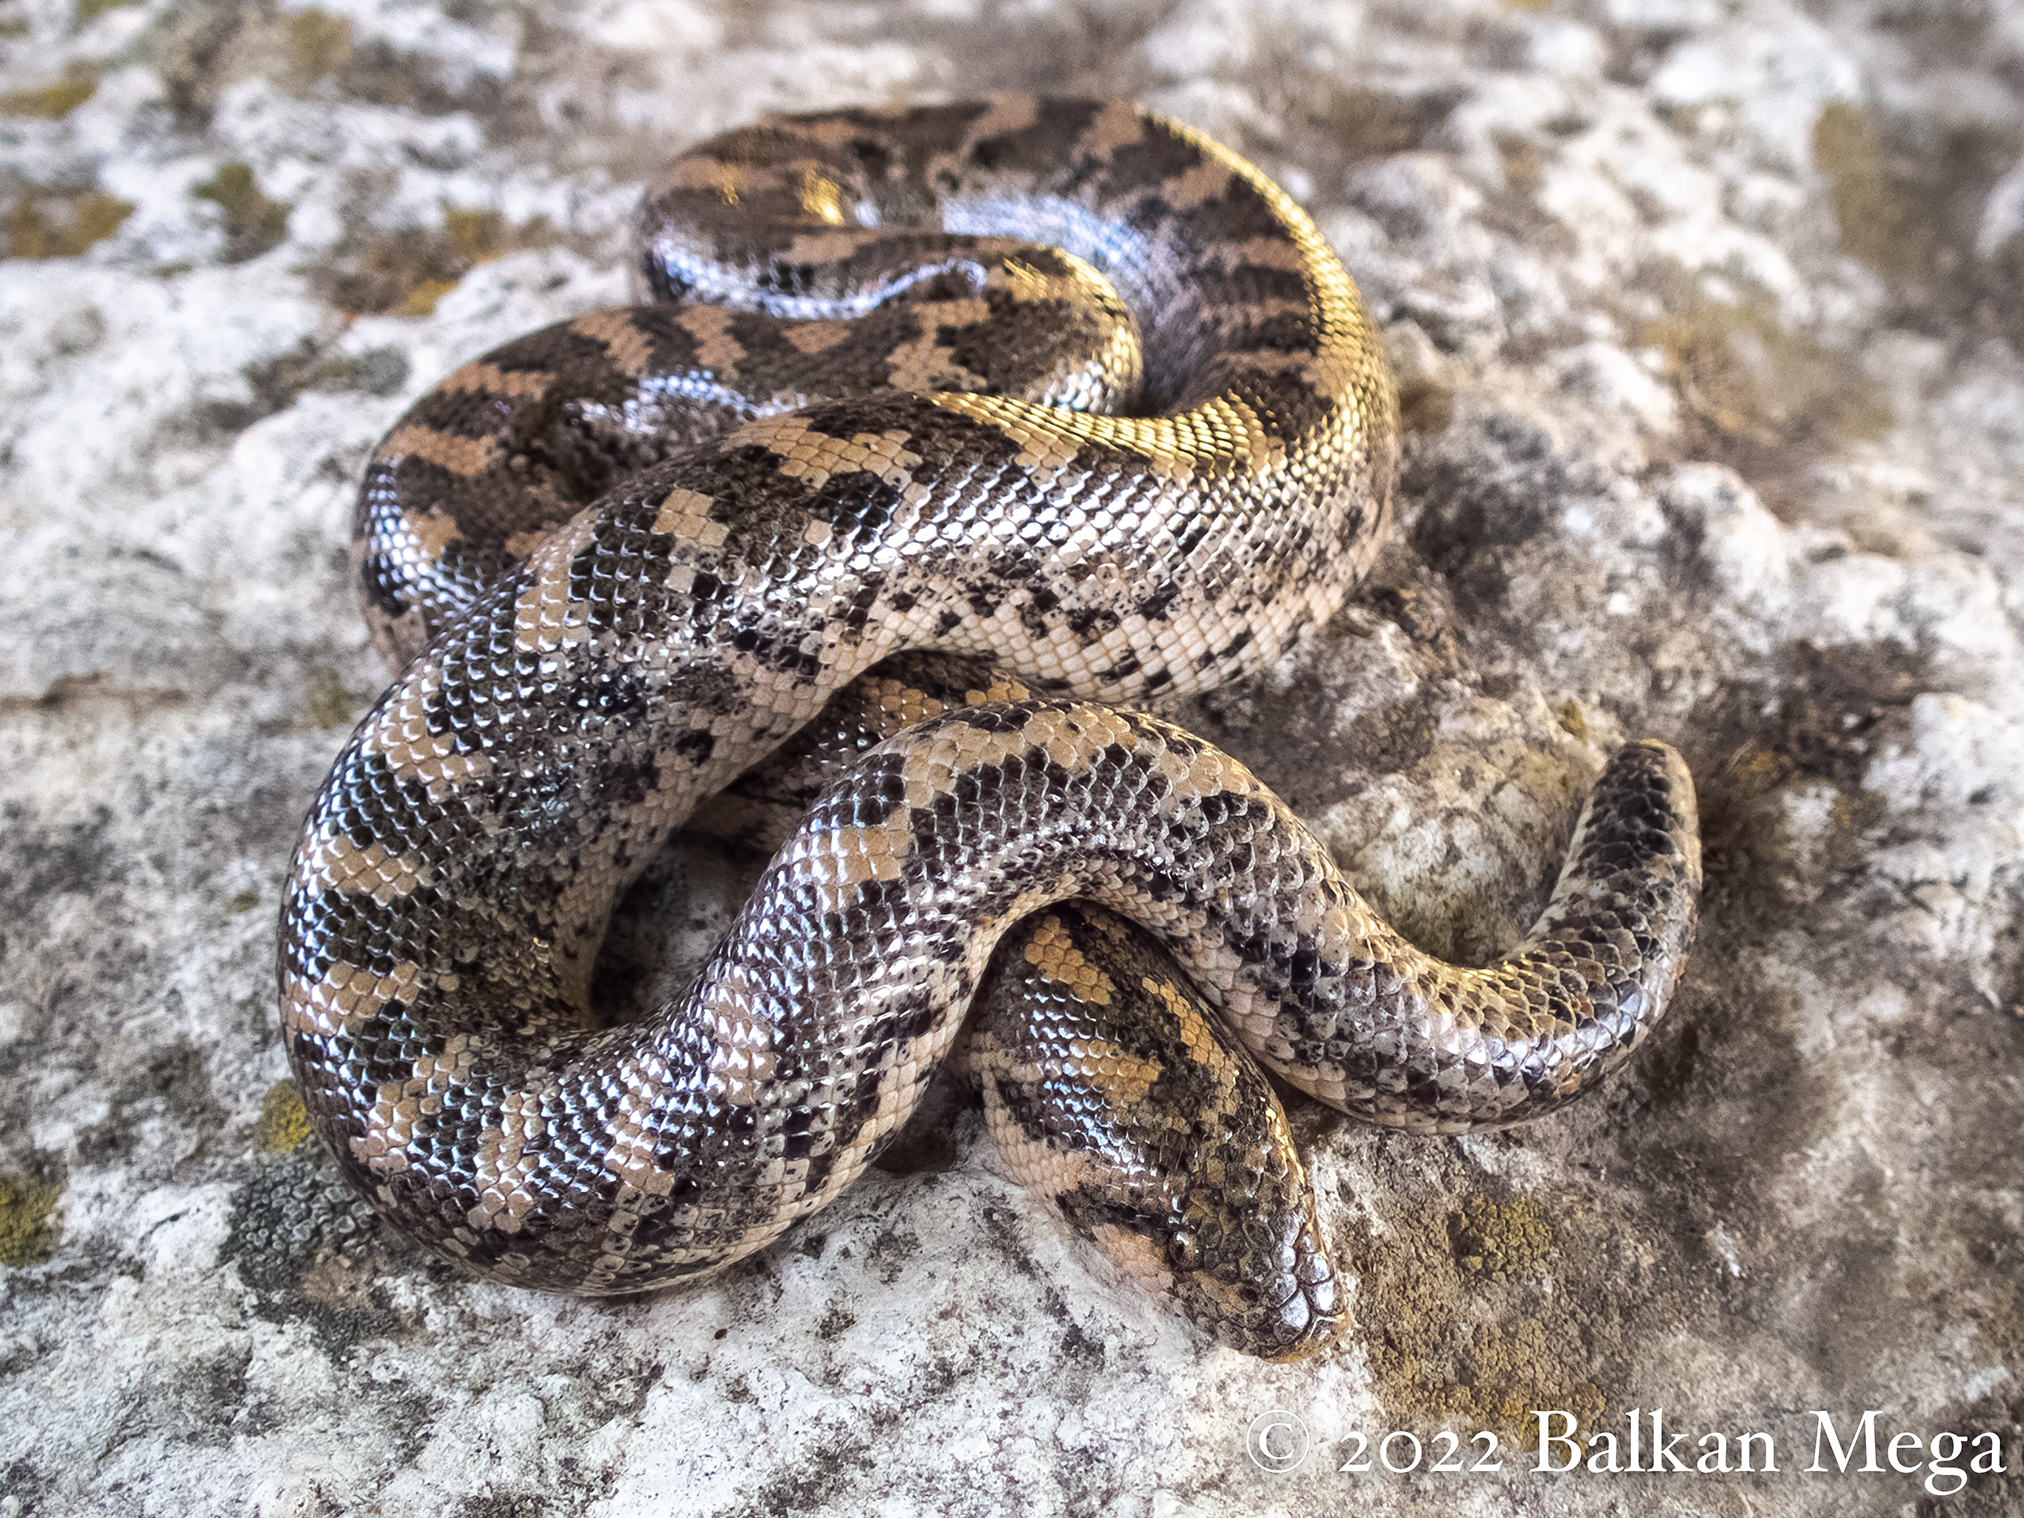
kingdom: Animalia
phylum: Chordata
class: Squamata
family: Boidae
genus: Eryx
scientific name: Eryx jaculus
